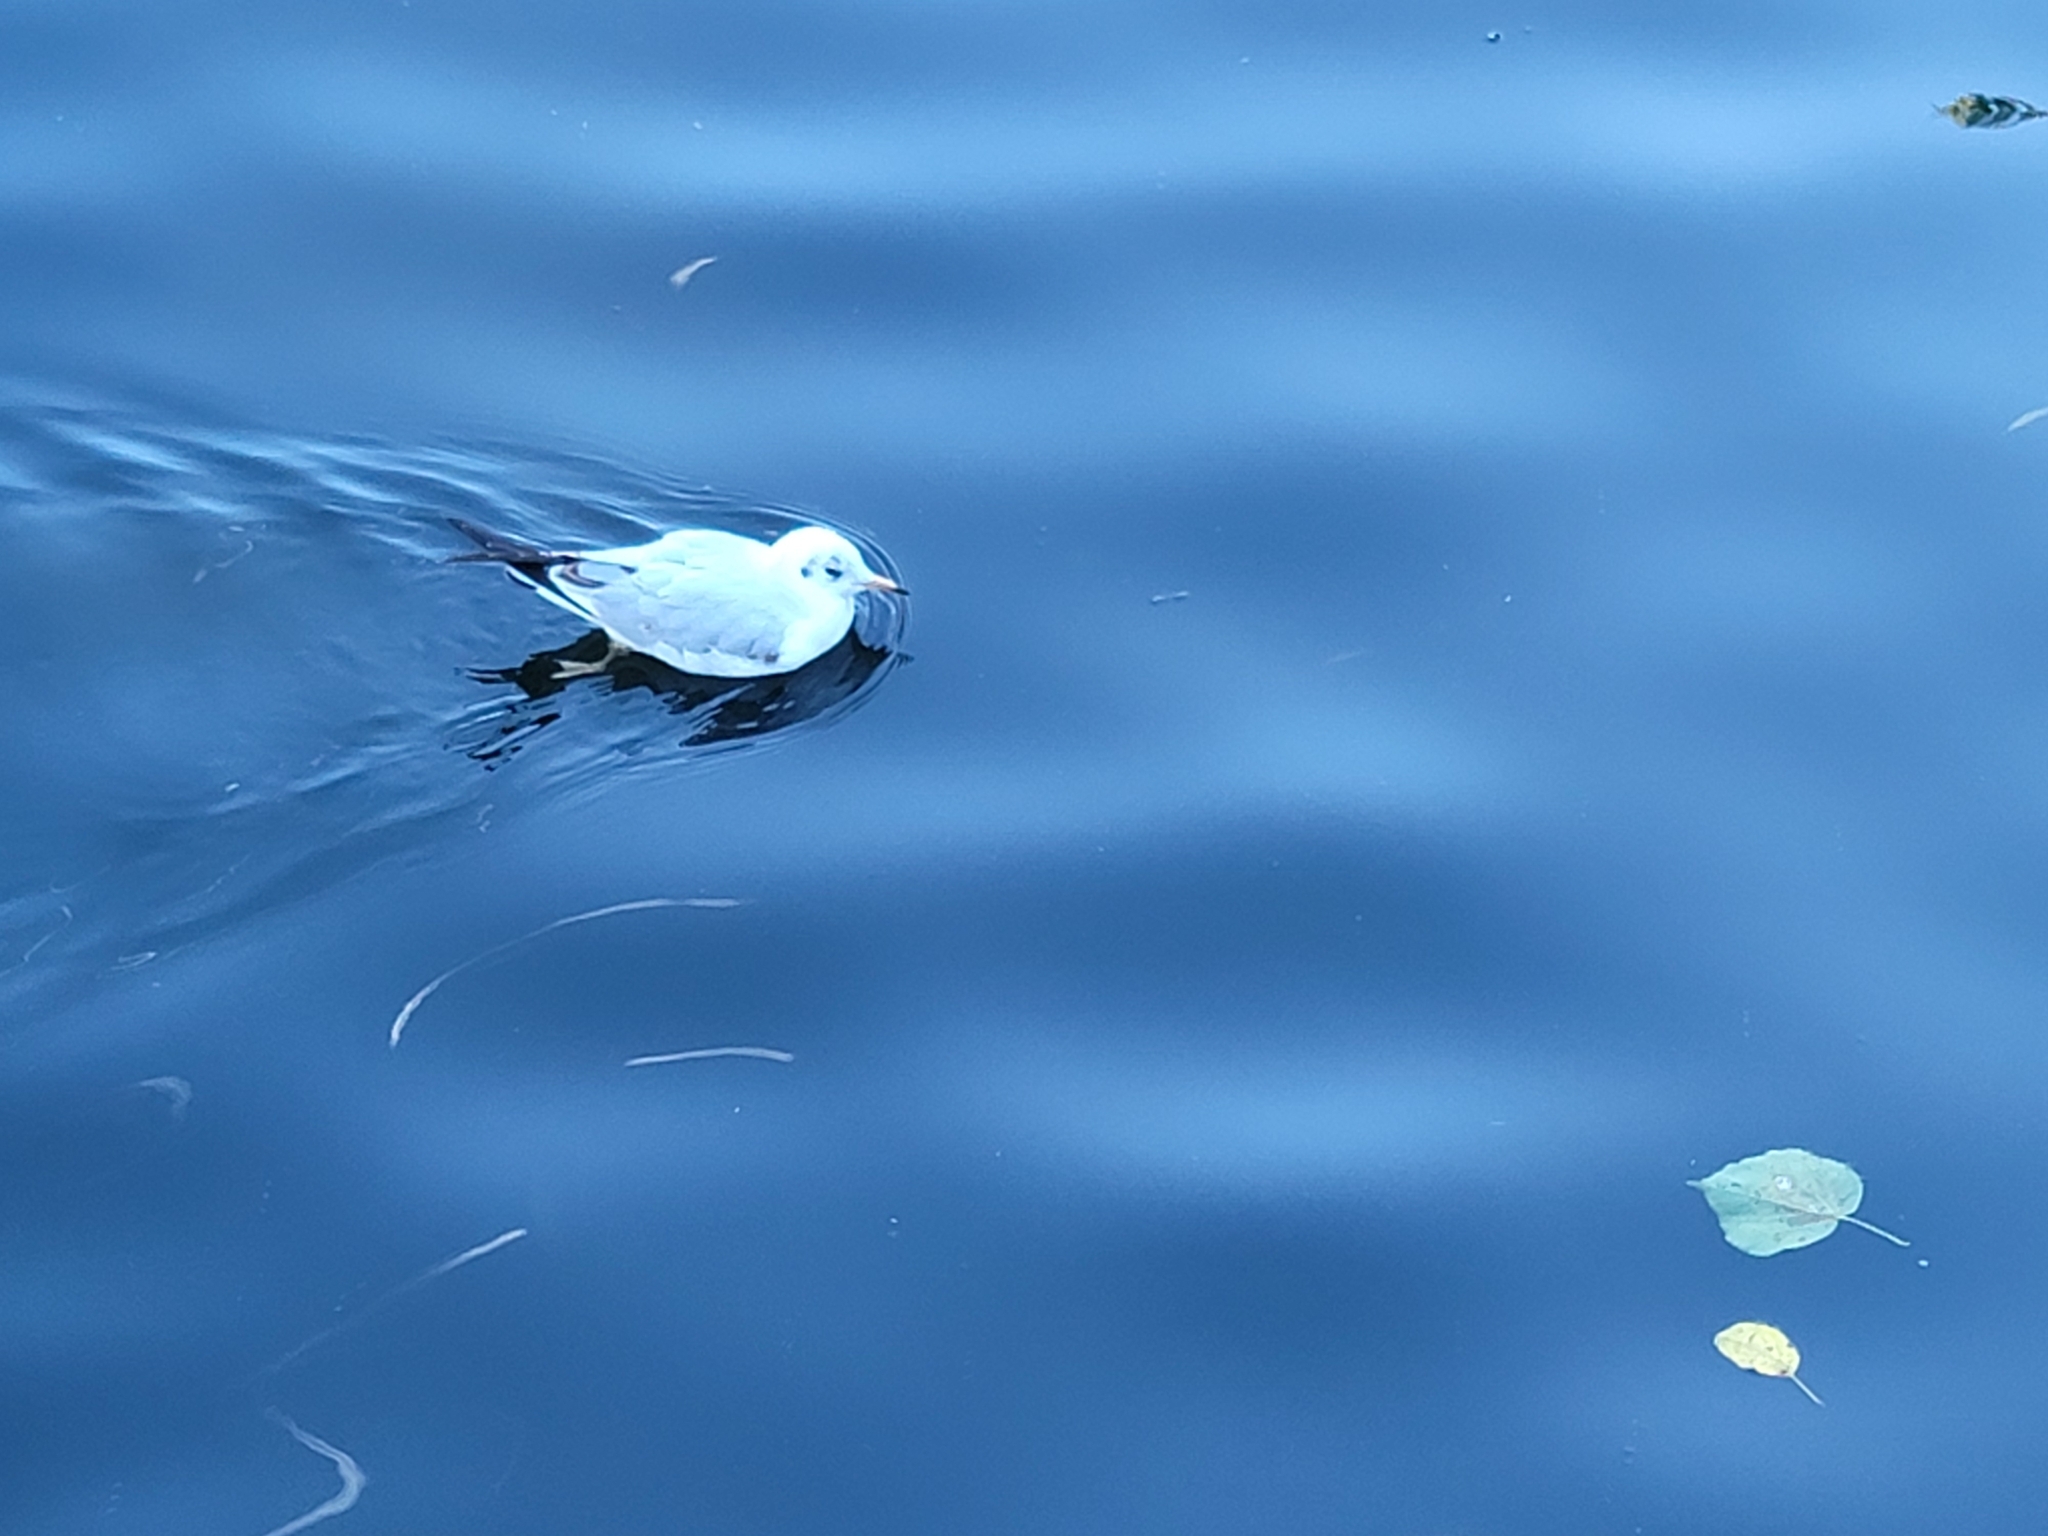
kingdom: Animalia
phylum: Chordata
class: Aves
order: Charadriiformes
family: Laridae
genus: Chroicocephalus
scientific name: Chroicocephalus ridibundus
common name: Black-headed gull
